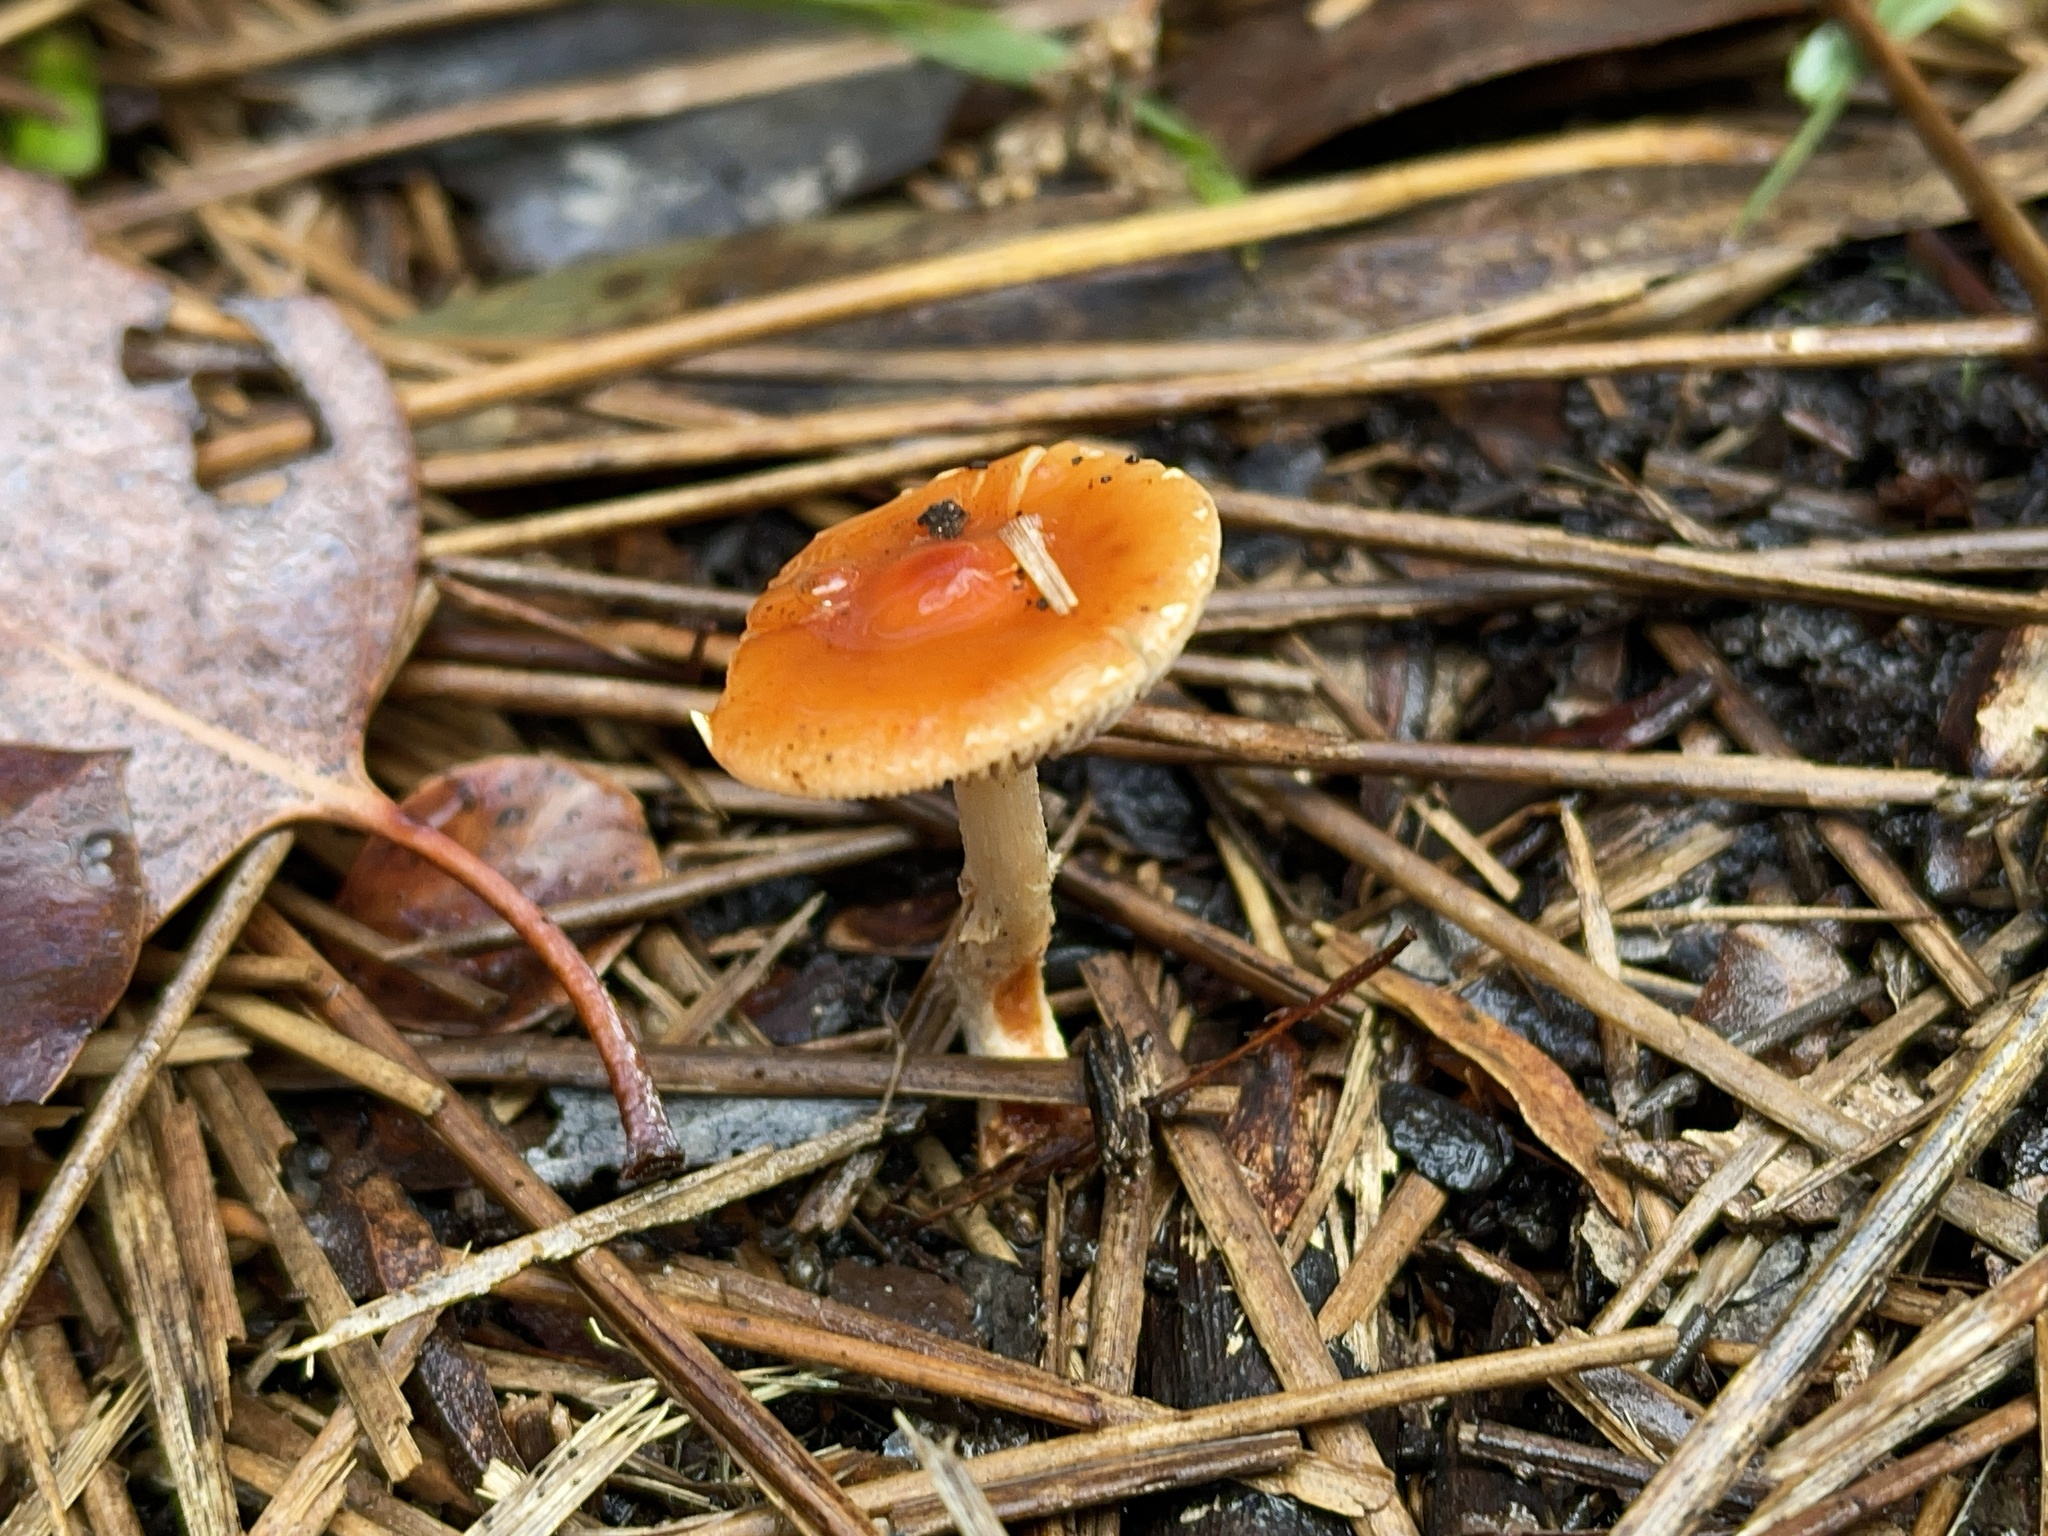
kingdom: Fungi
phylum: Basidiomycota
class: Agaricomycetes
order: Agaricales
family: Strophariaceae
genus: Leratiomyces
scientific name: Leratiomyces ceres
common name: Redlead roundhead
